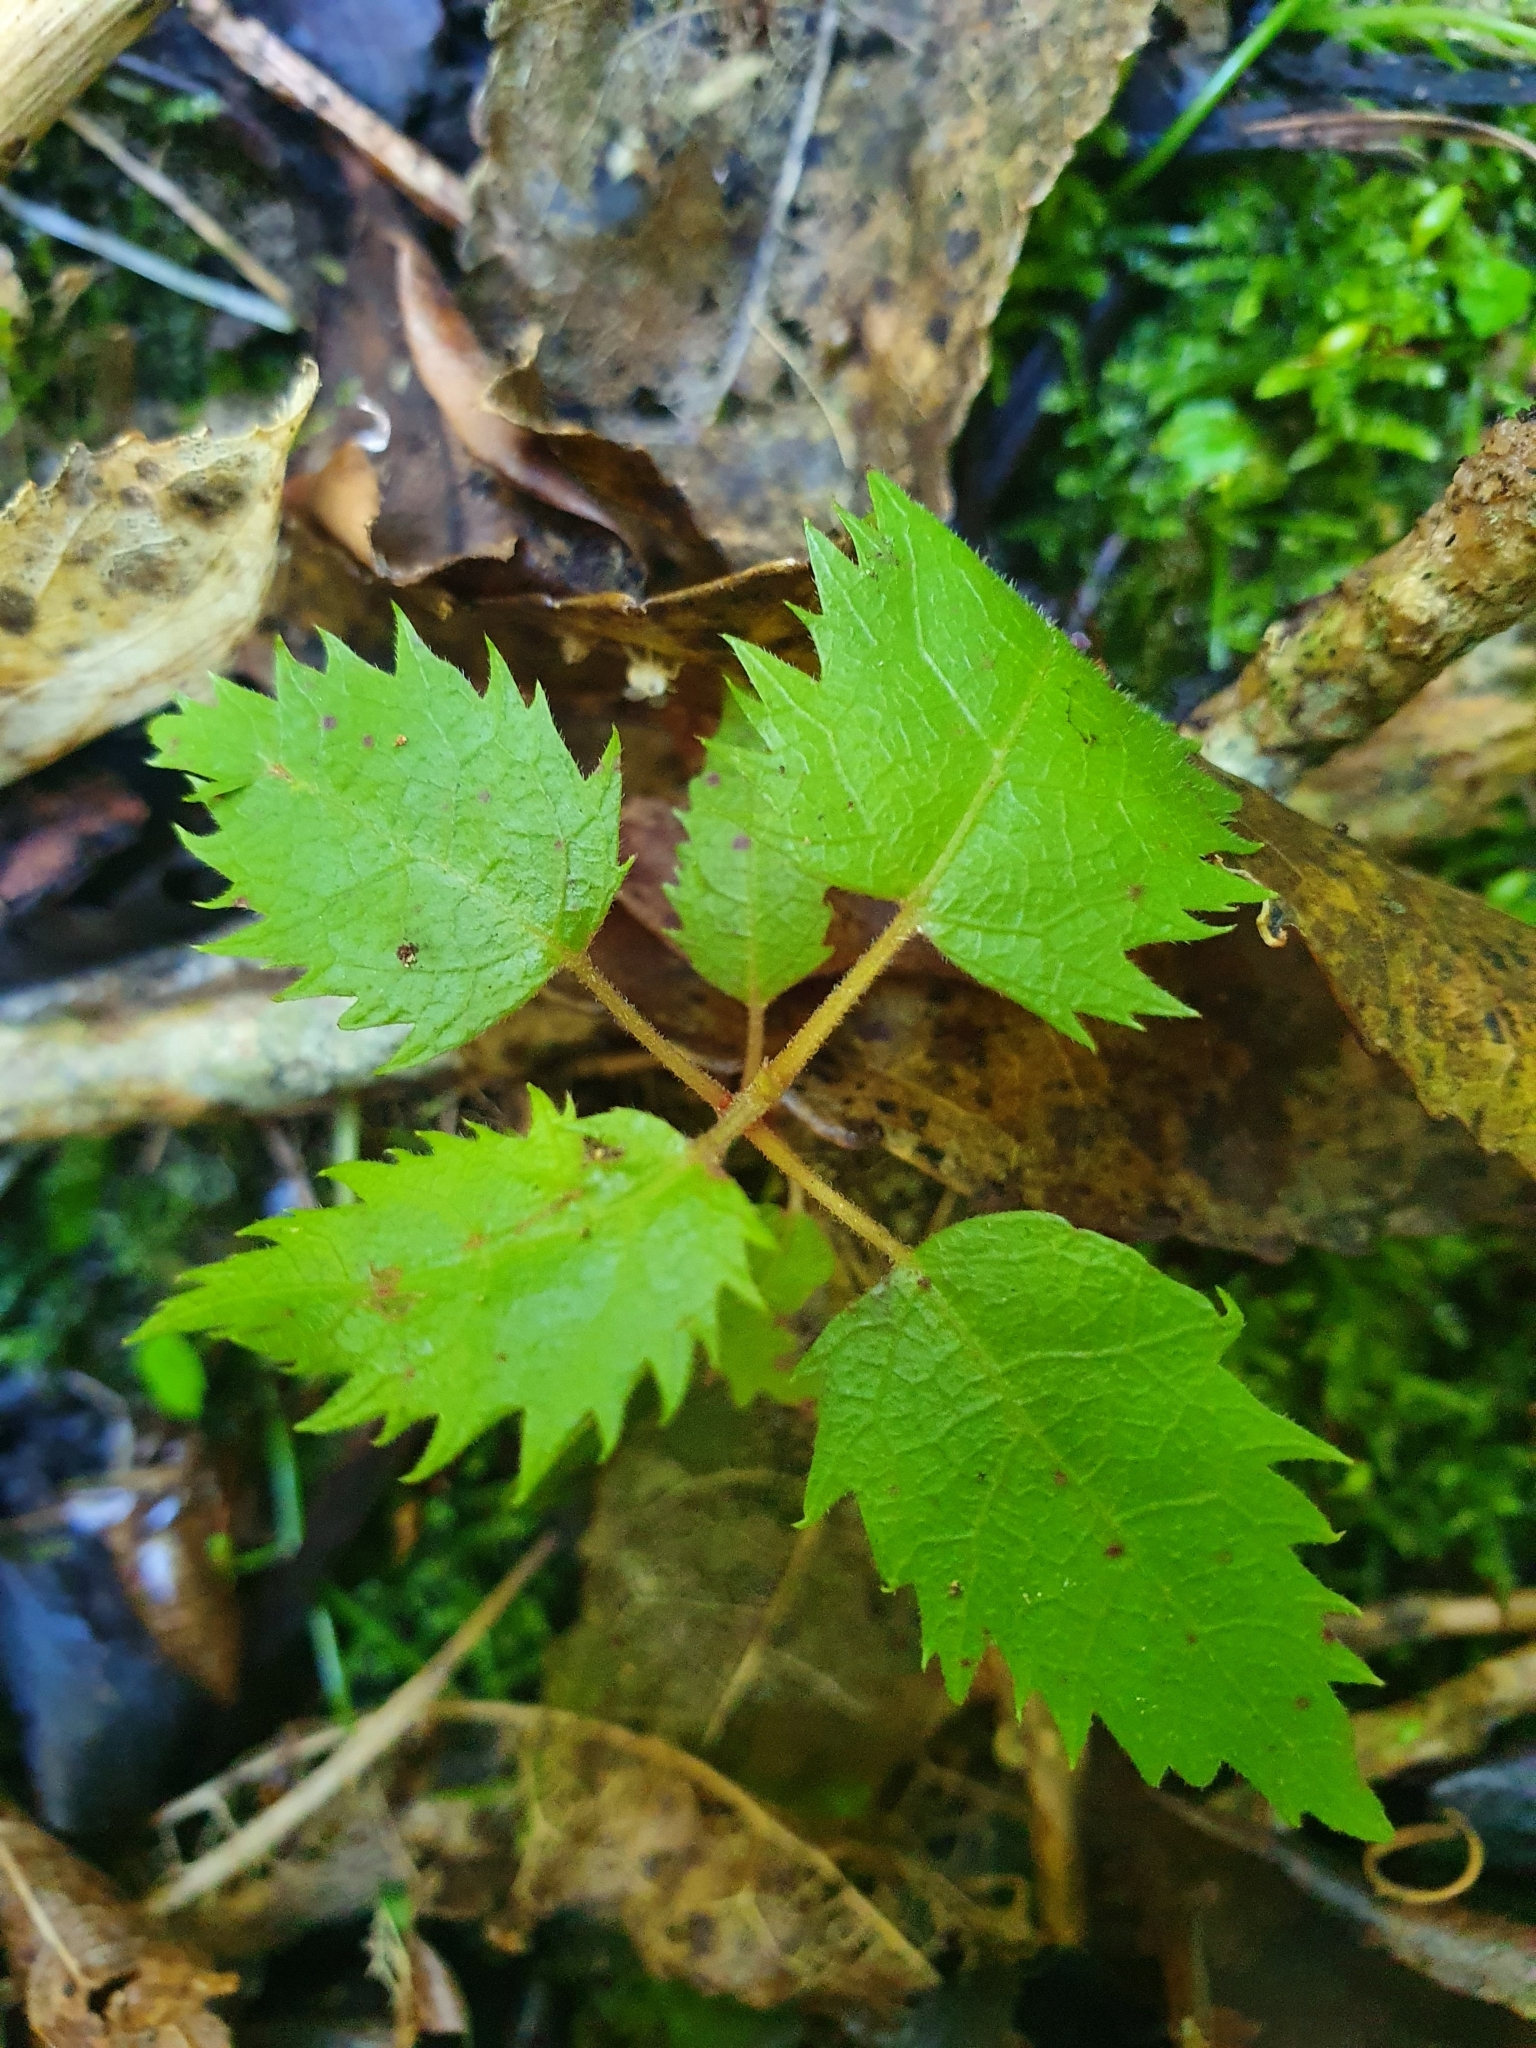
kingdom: Plantae
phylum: Tracheophyta
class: Magnoliopsida
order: Oxalidales
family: Elaeocarpaceae
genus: Aristotelia
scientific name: Aristotelia serrata
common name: New zealand wineberry
